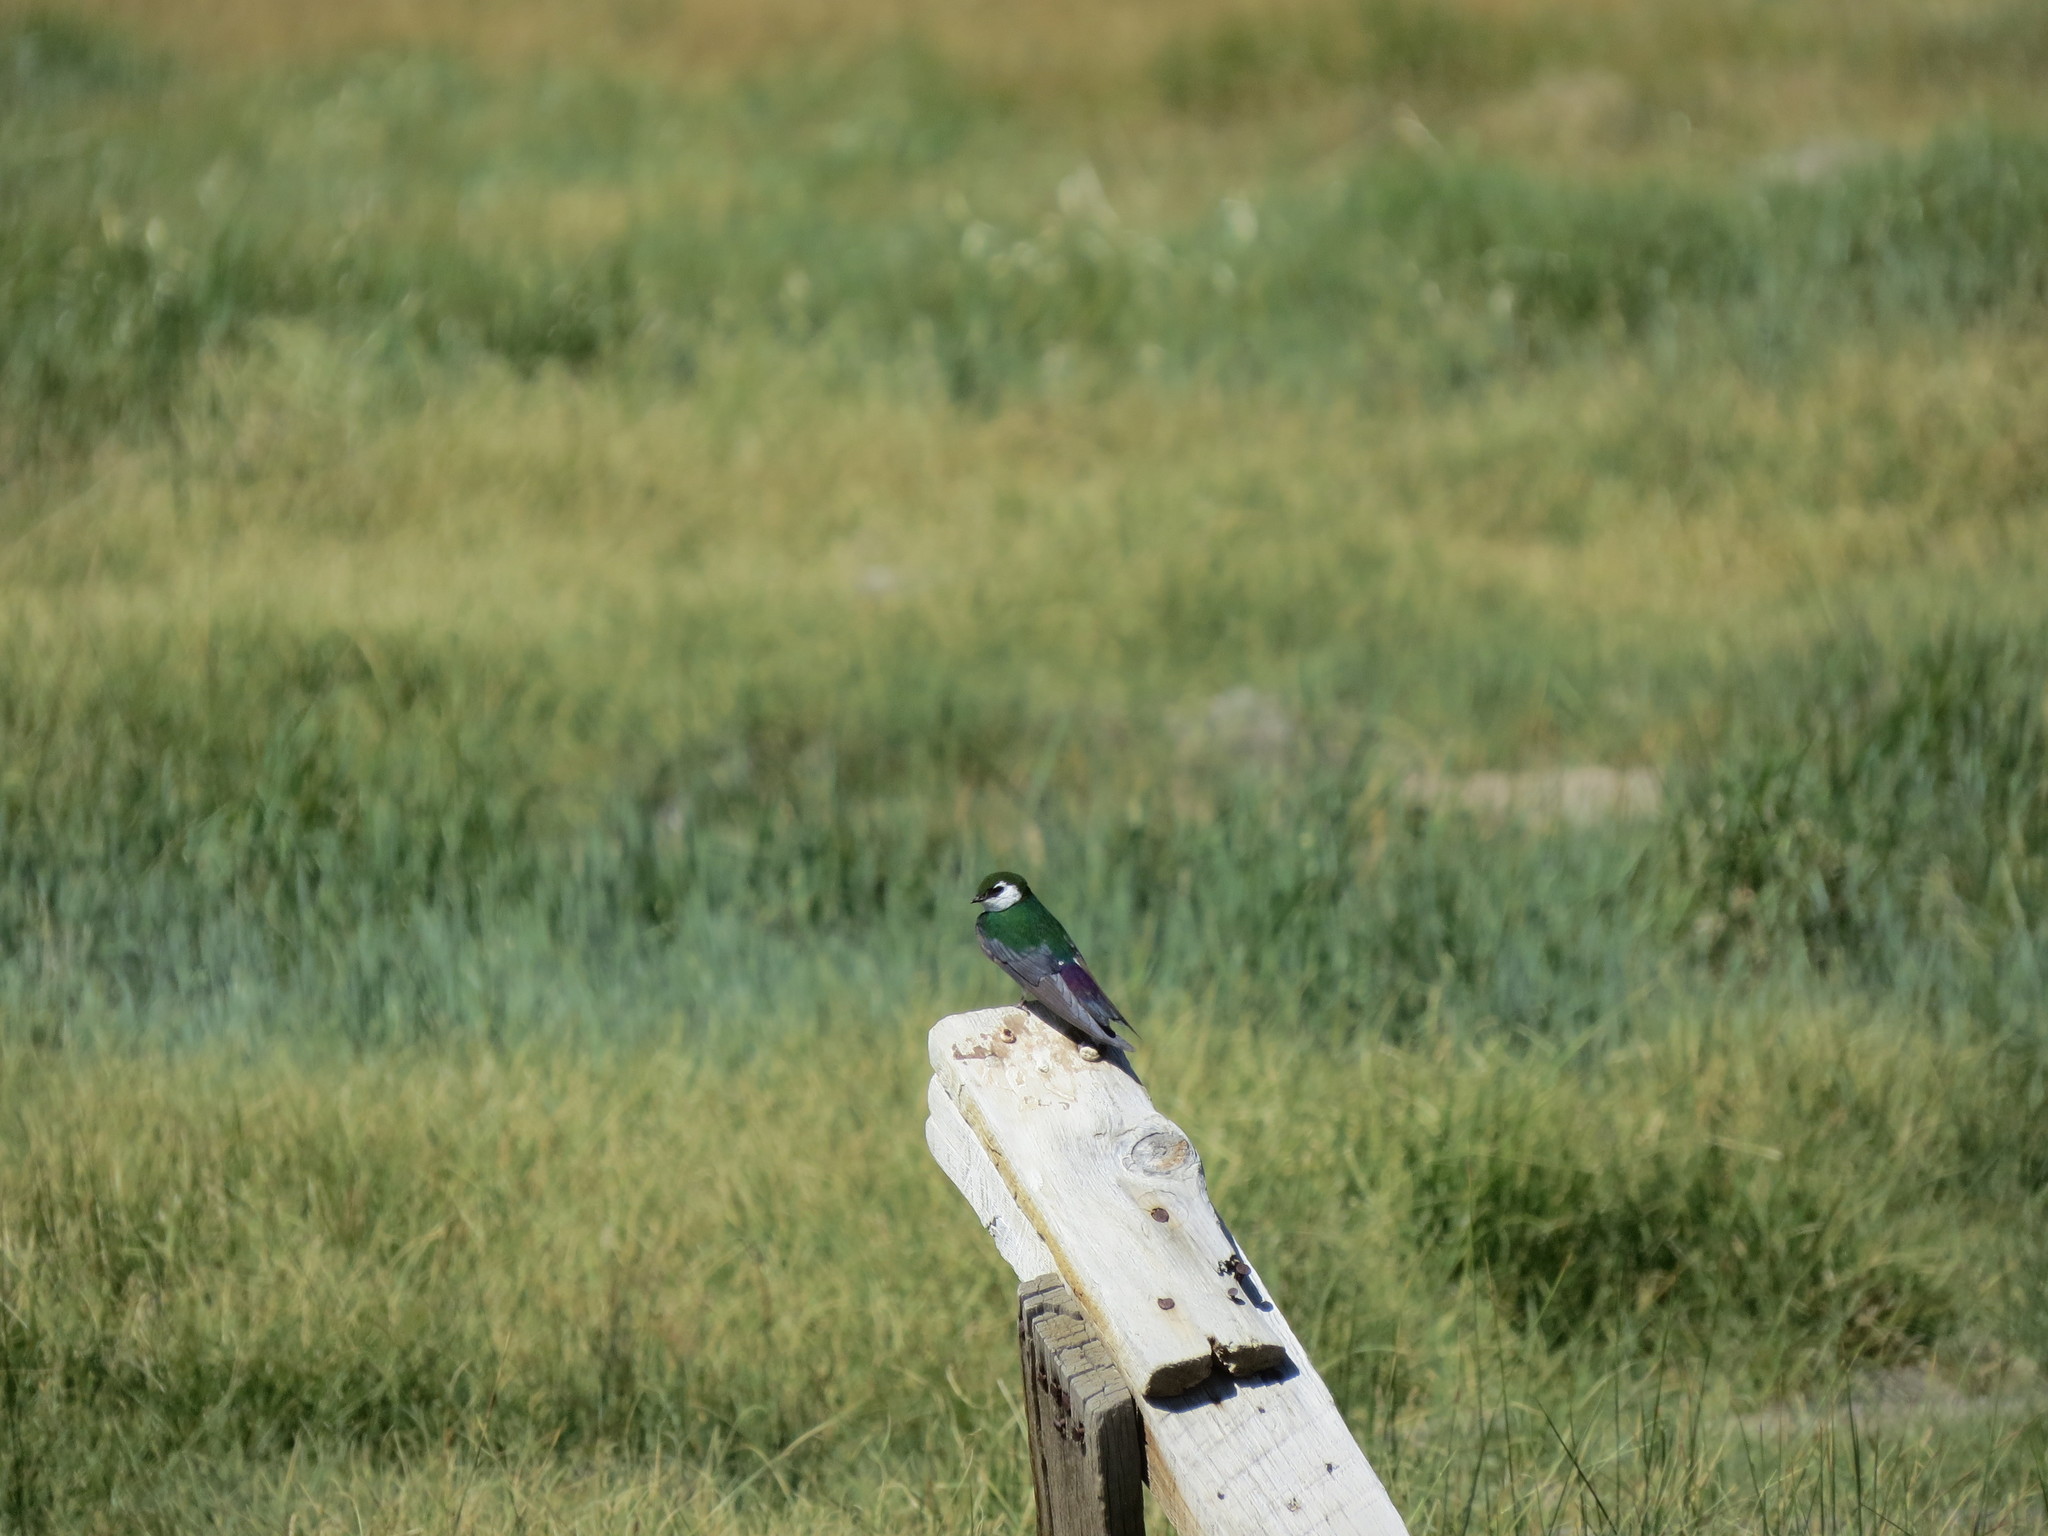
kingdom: Animalia
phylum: Chordata
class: Aves
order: Passeriformes
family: Hirundinidae
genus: Tachycineta
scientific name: Tachycineta thalassina
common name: Violet-green swallow
